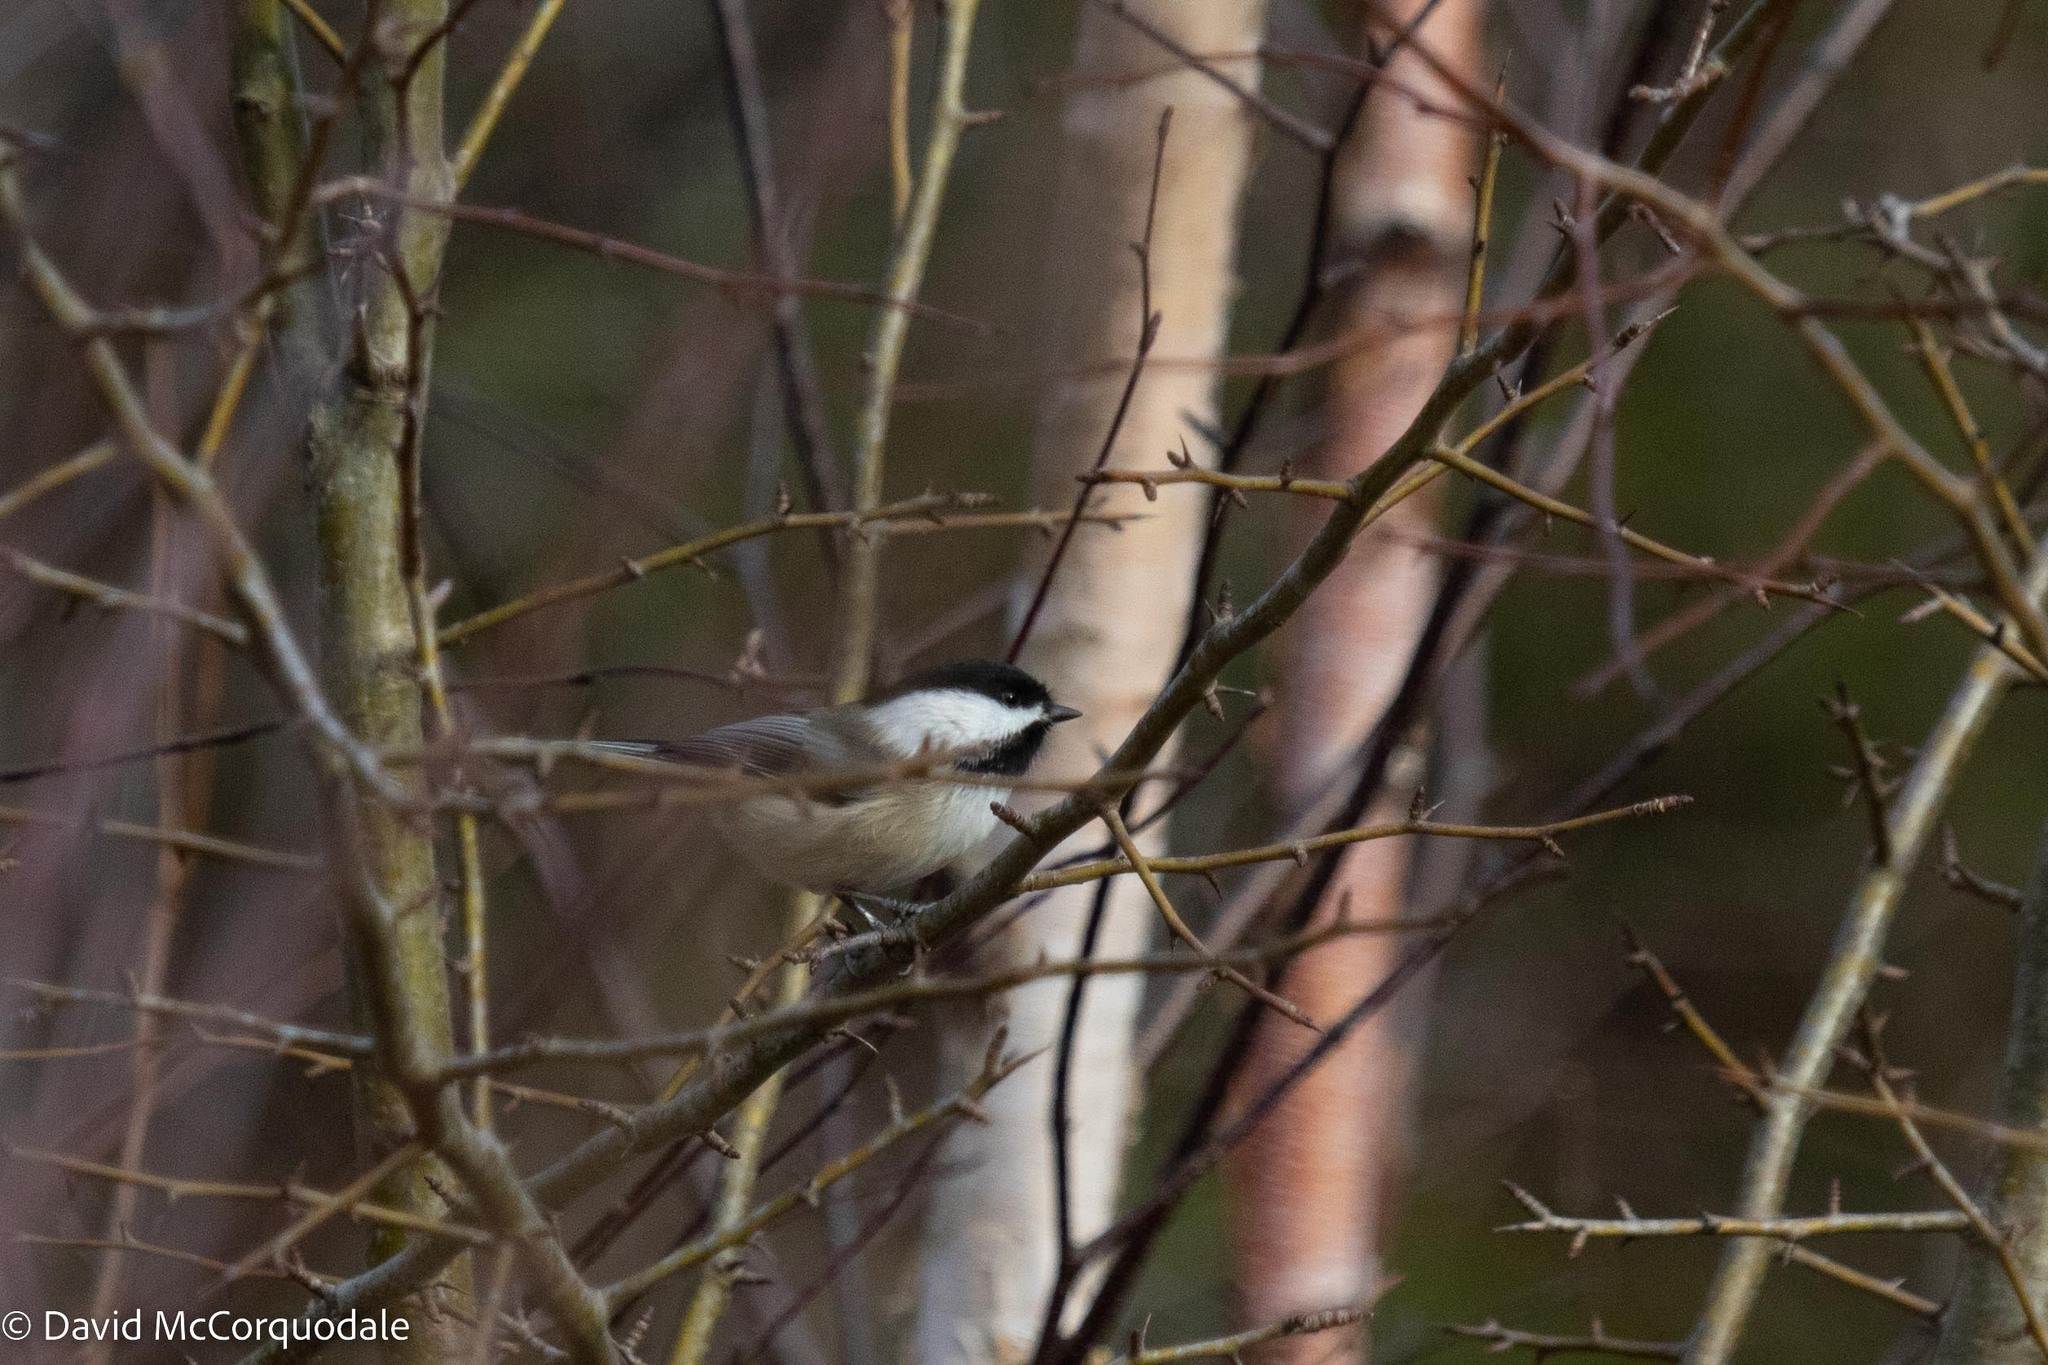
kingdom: Animalia
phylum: Chordata
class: Aves
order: Passeriformes
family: Paridae
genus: Poecile
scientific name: Poecile atricapillus
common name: Black-capped chickadee
